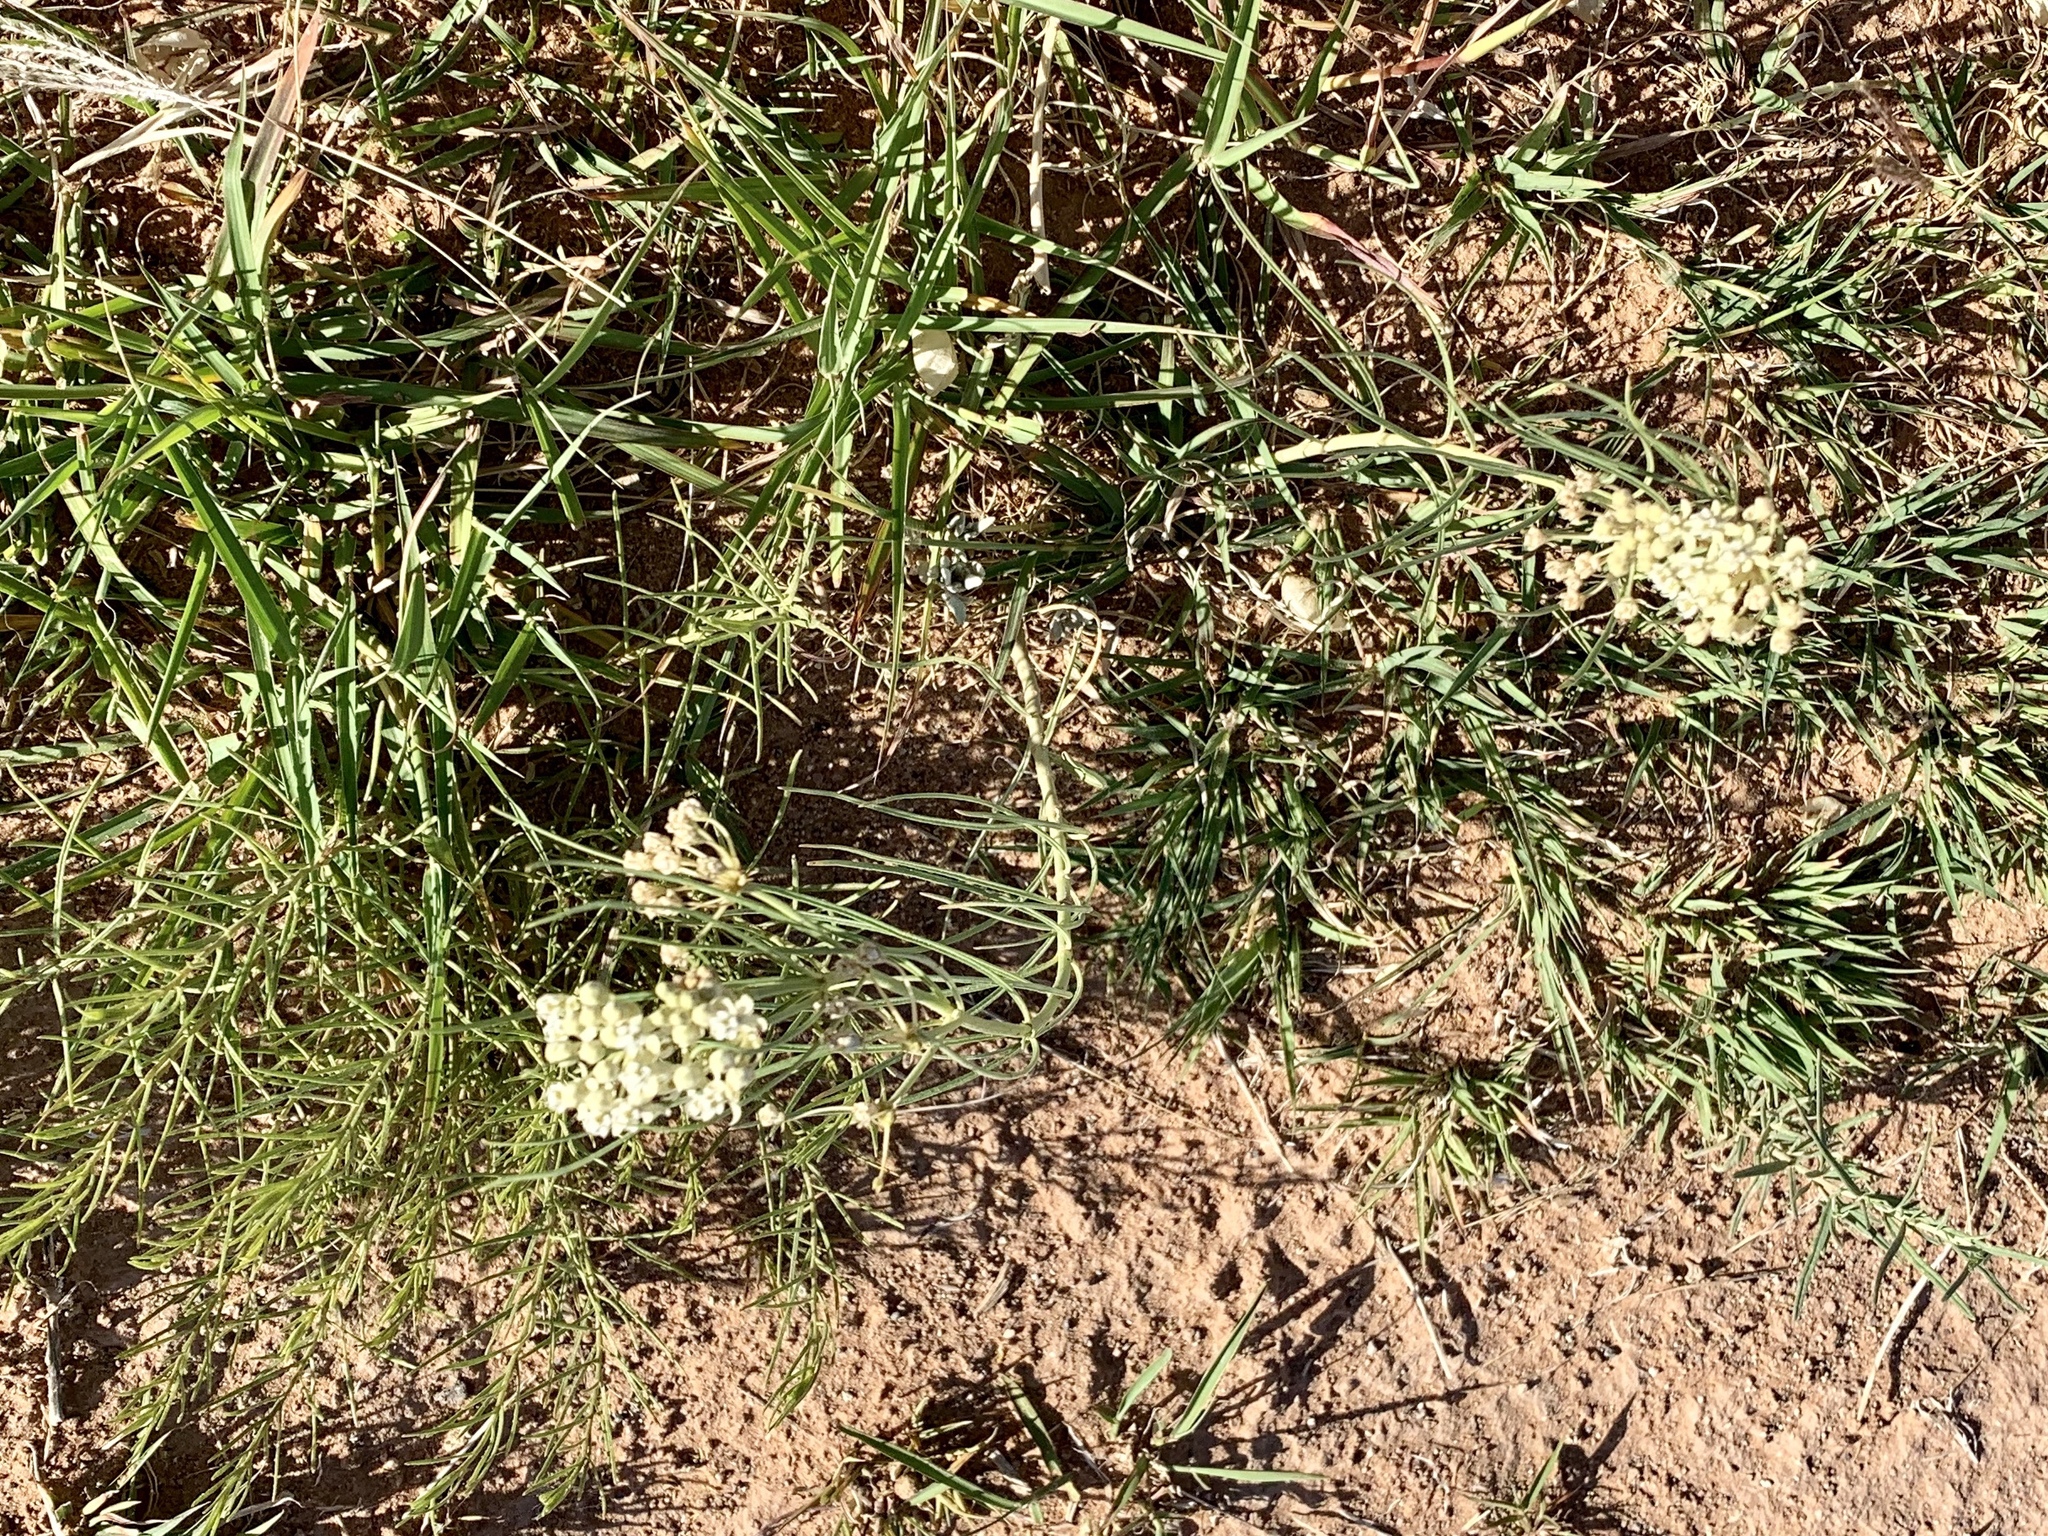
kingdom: Plantae
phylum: Tracheophyta
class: Magnoliopsida
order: Gentianales
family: Apocynaceae
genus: Asclepias
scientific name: Asclepias subverticillata
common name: Horsetail milkweed
